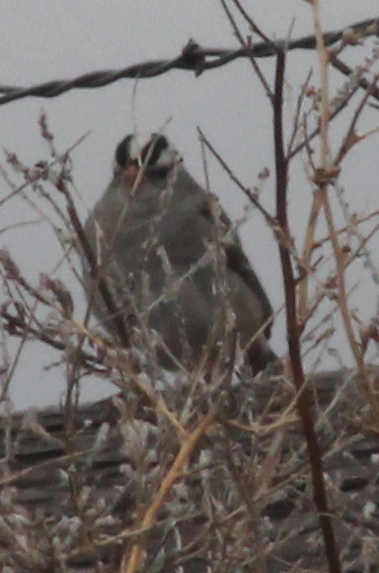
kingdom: Animalia
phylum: Chordata
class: Aves
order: Passeriformes
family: Passerellidae
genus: Zonotrichia
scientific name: Zonotrichia leucophrys
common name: White-crowned sparrow
